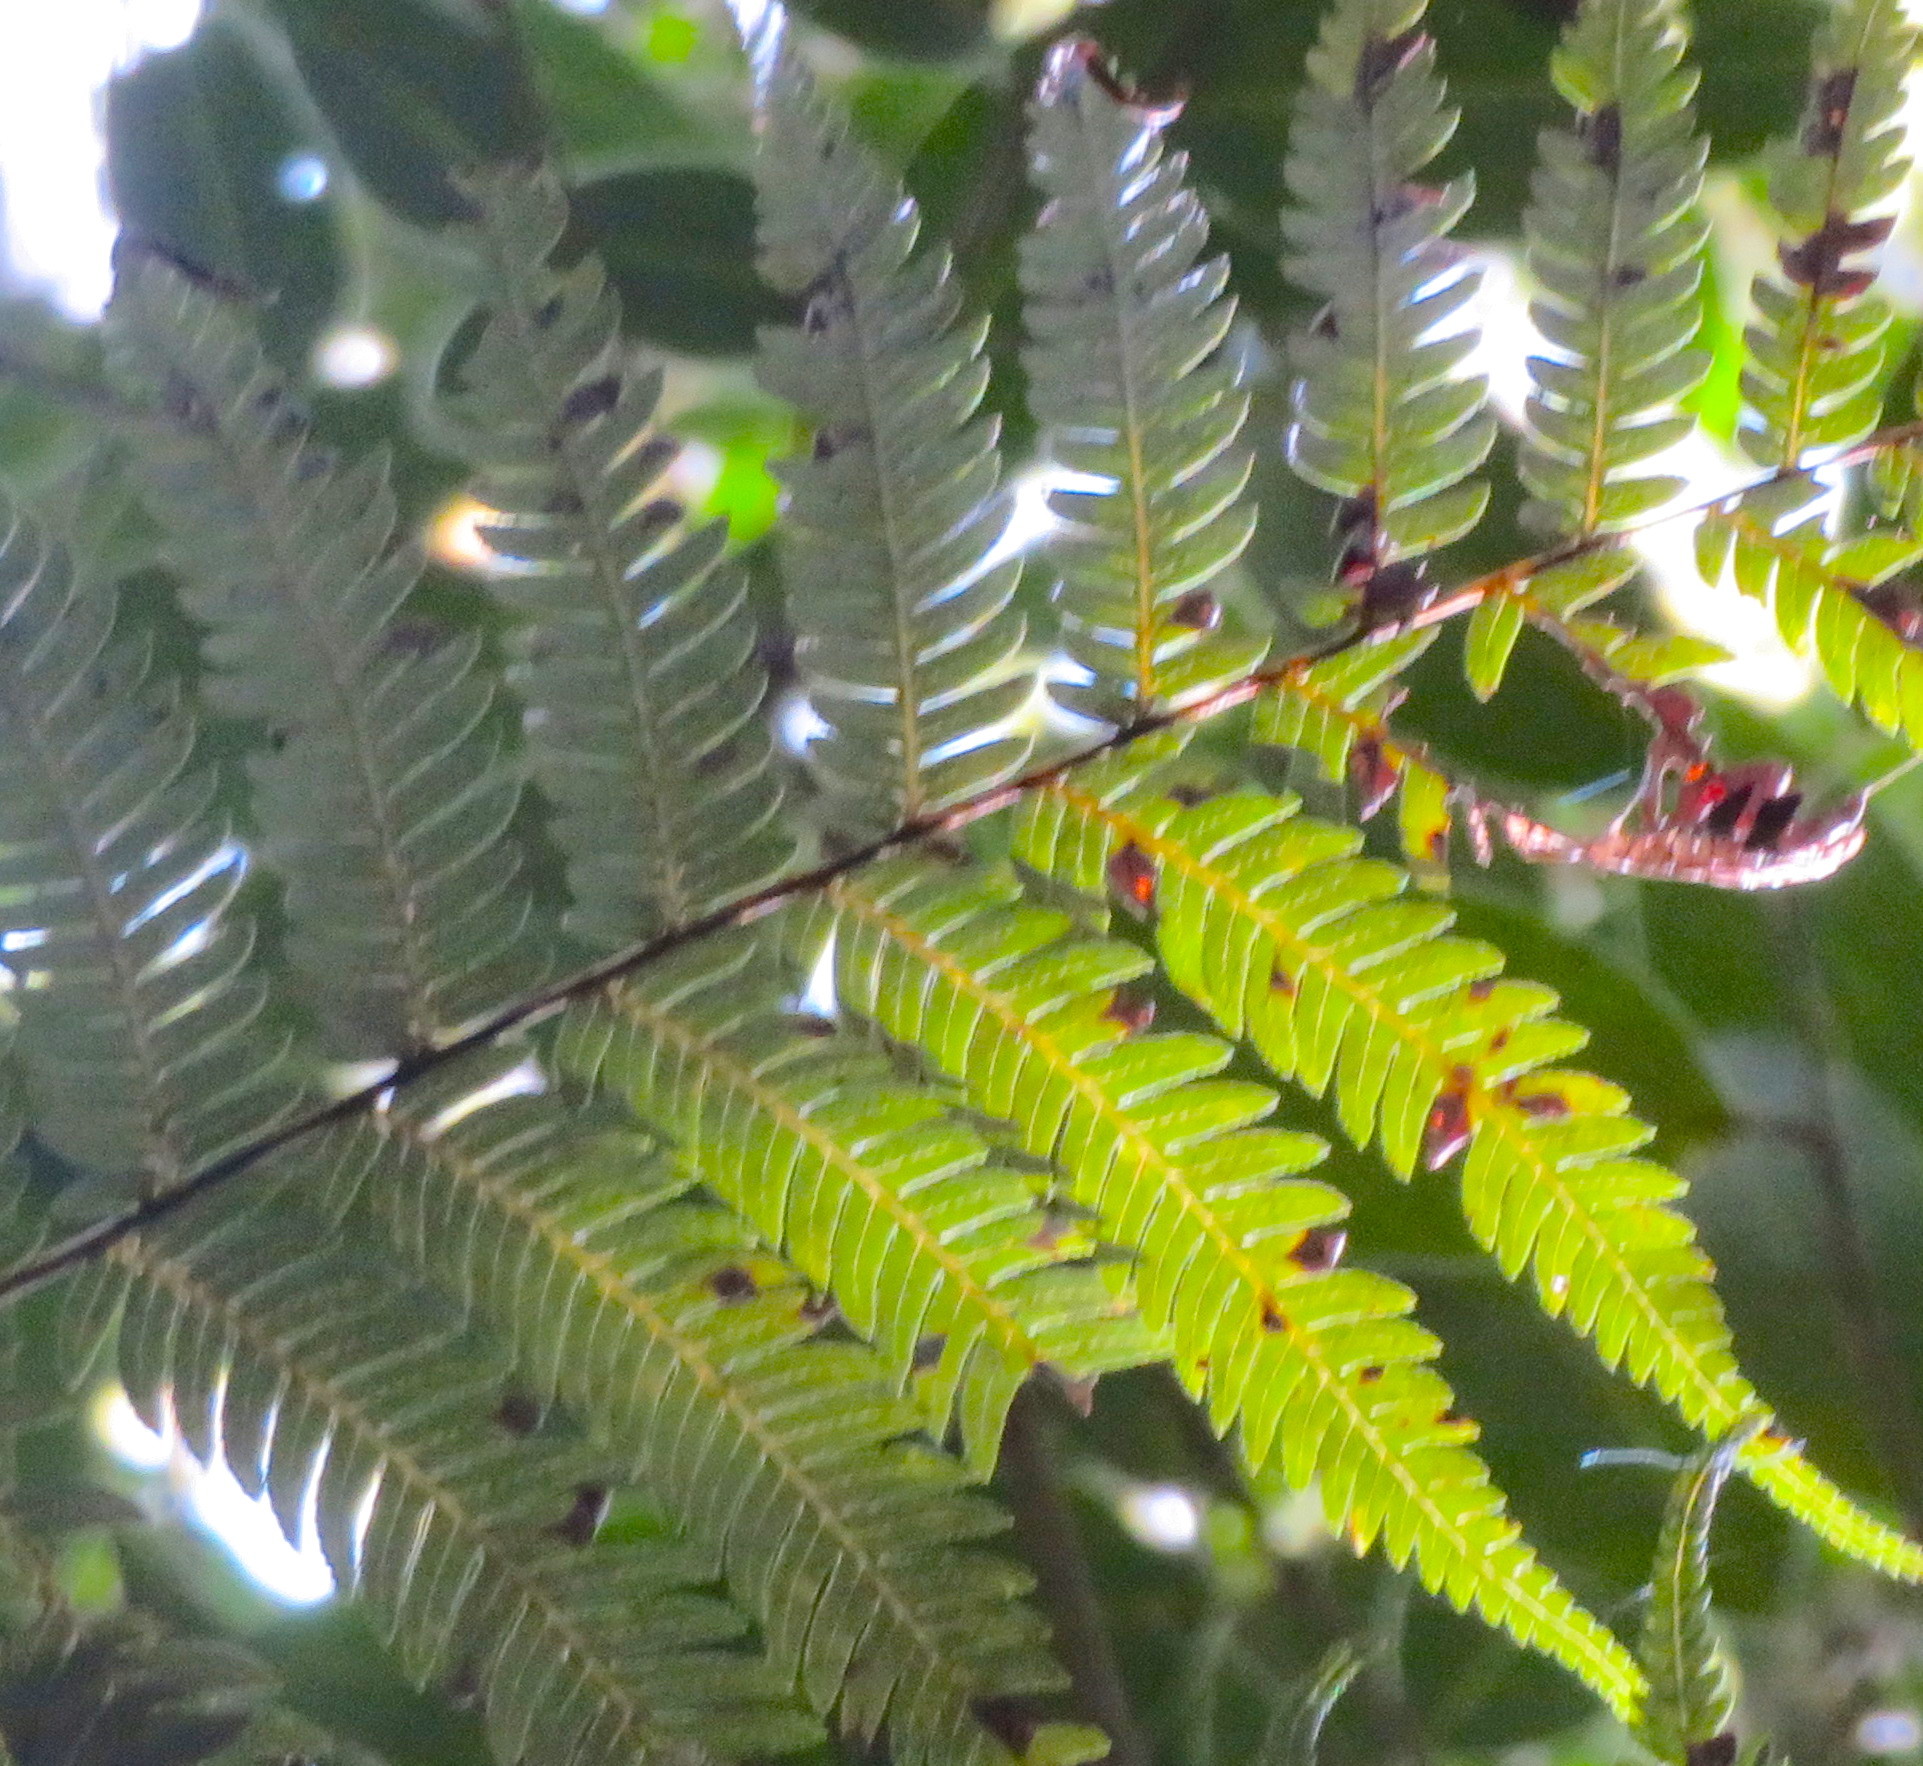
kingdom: Plantae
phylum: Tracheophyta
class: Polypodiopsida
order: Cyatheales
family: Cyatheaceae
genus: Alsophila
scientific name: Alsophila dealbata
